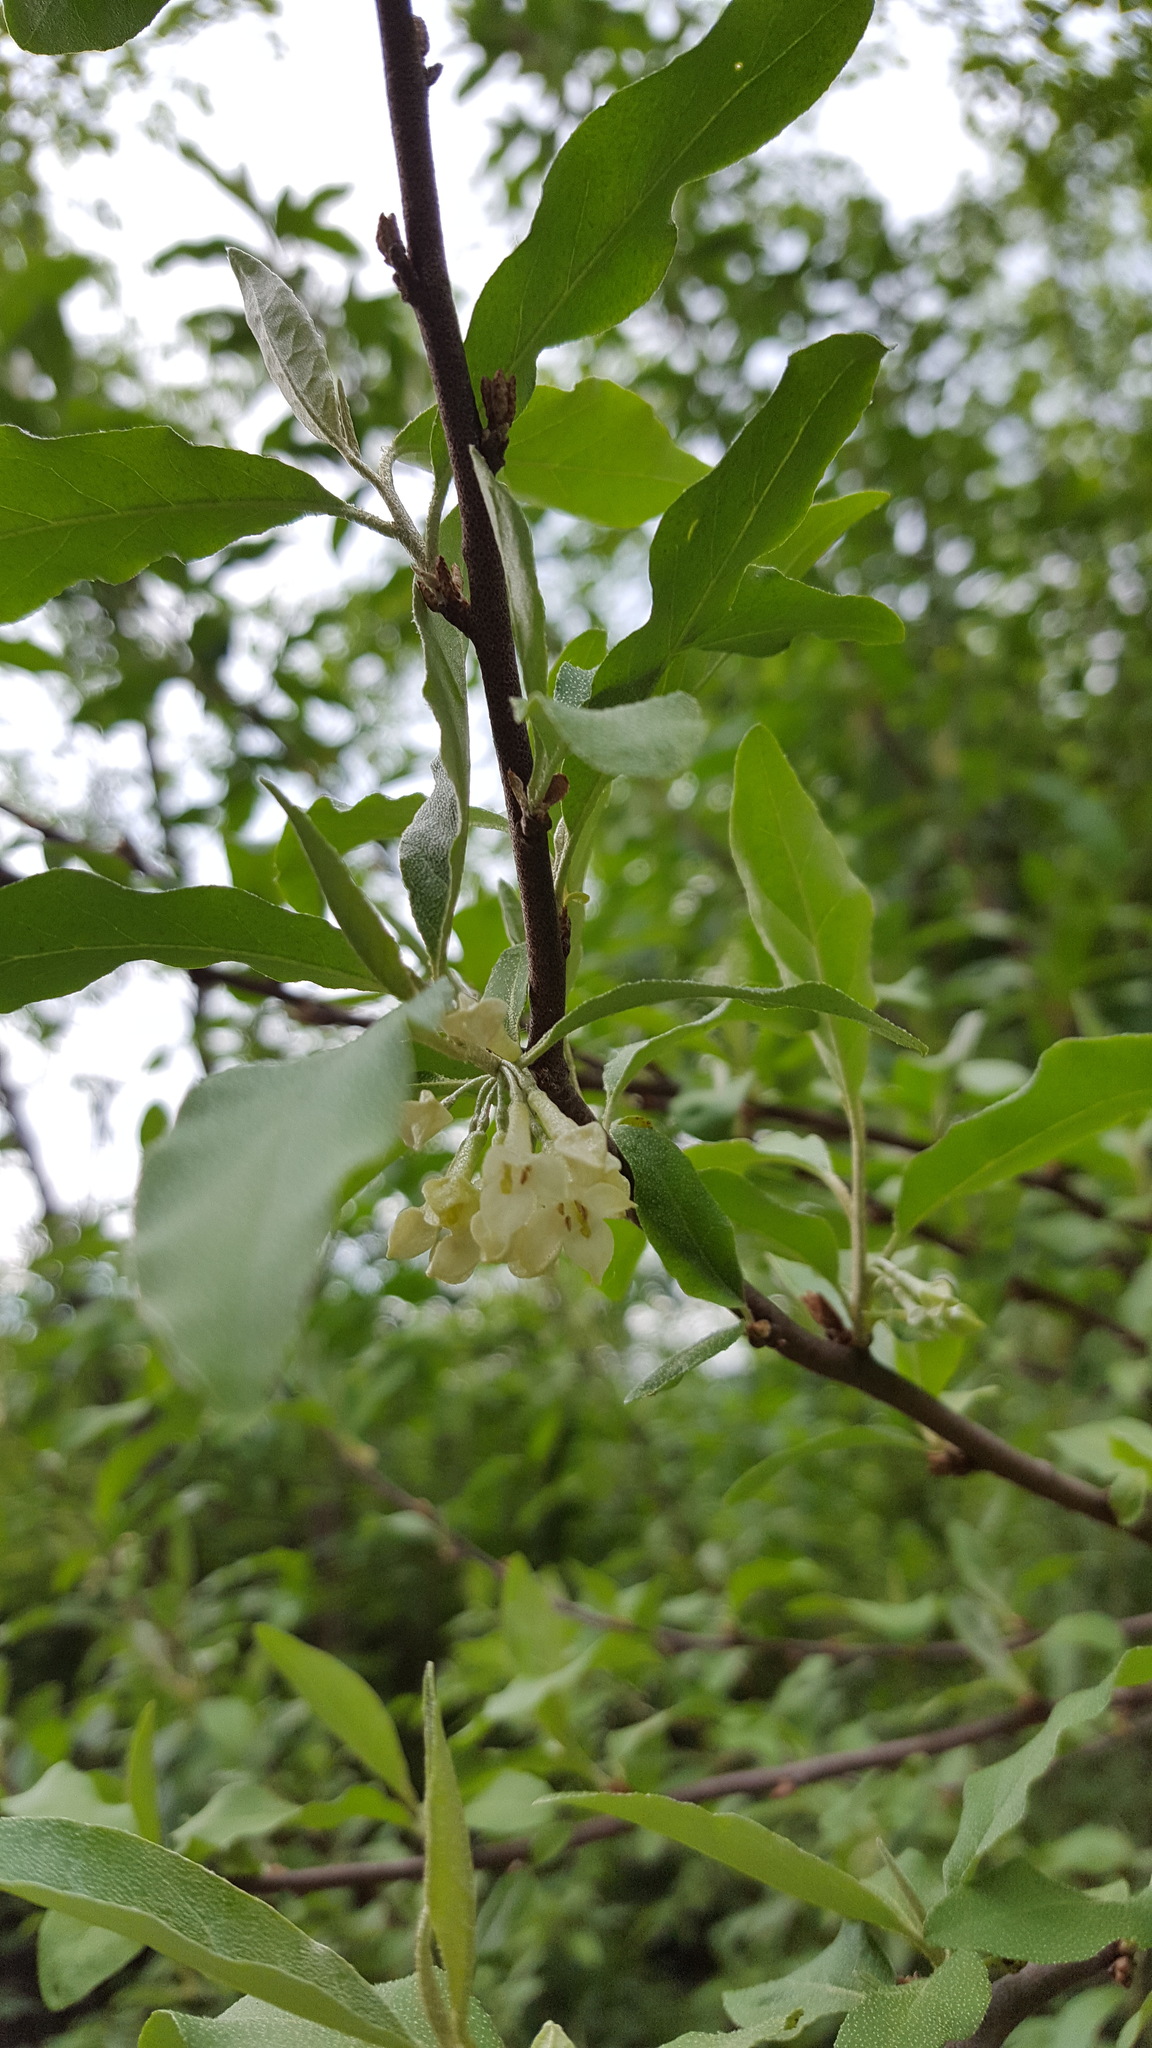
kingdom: Plantae
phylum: Tracheophyta
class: Magnoliopsida
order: Rosales
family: Elaeagnaceae
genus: Elaeagnus
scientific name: Elaeagnus umbellata
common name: Autumn olive
